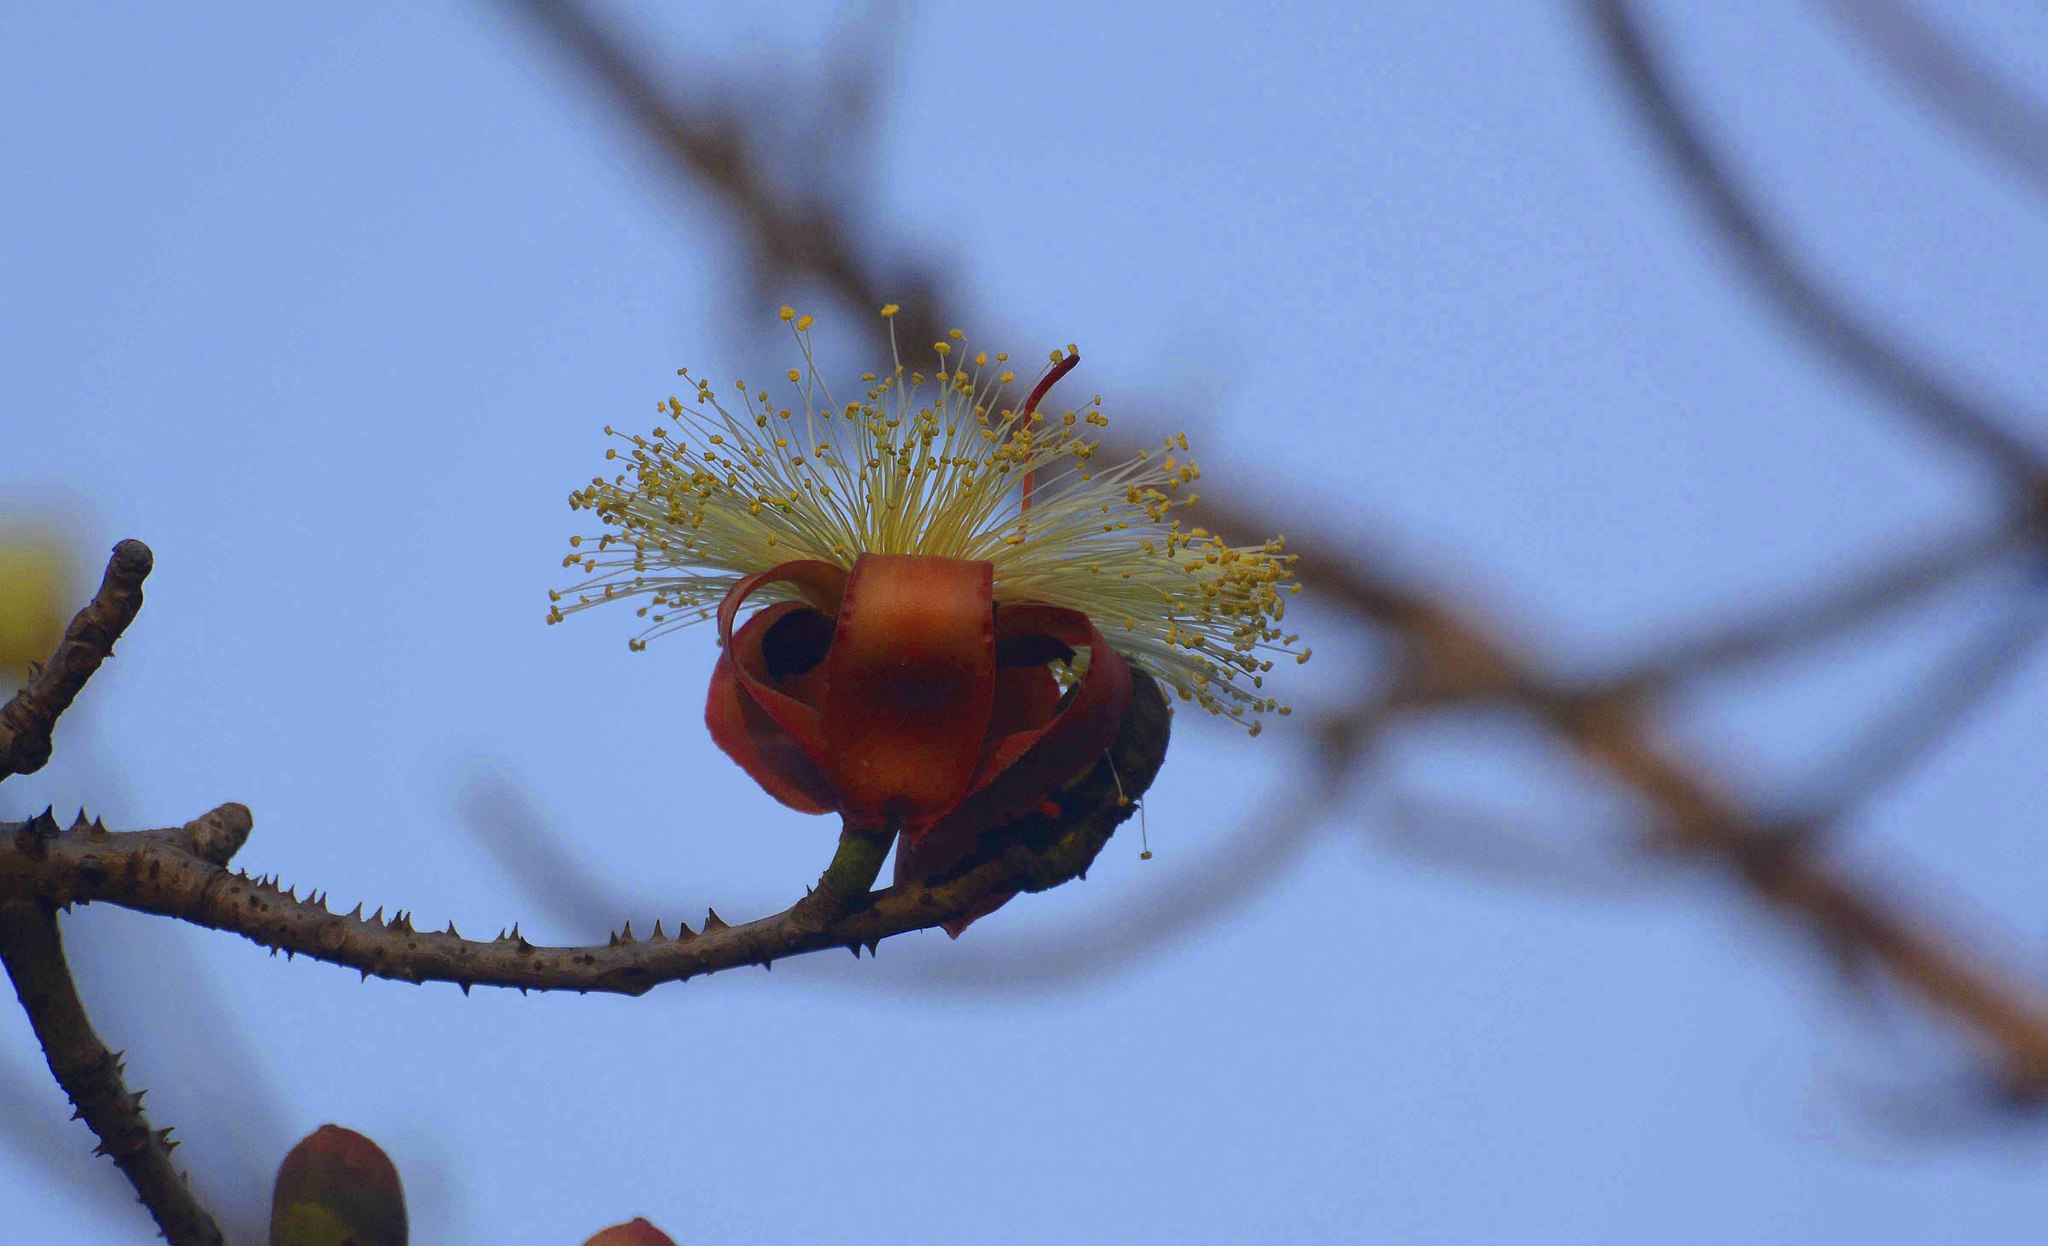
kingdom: Plantae
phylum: Tracheophyta
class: Magnoliopsida
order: Malvales
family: Malvaceae
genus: Bombax
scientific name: Bombax insigne
